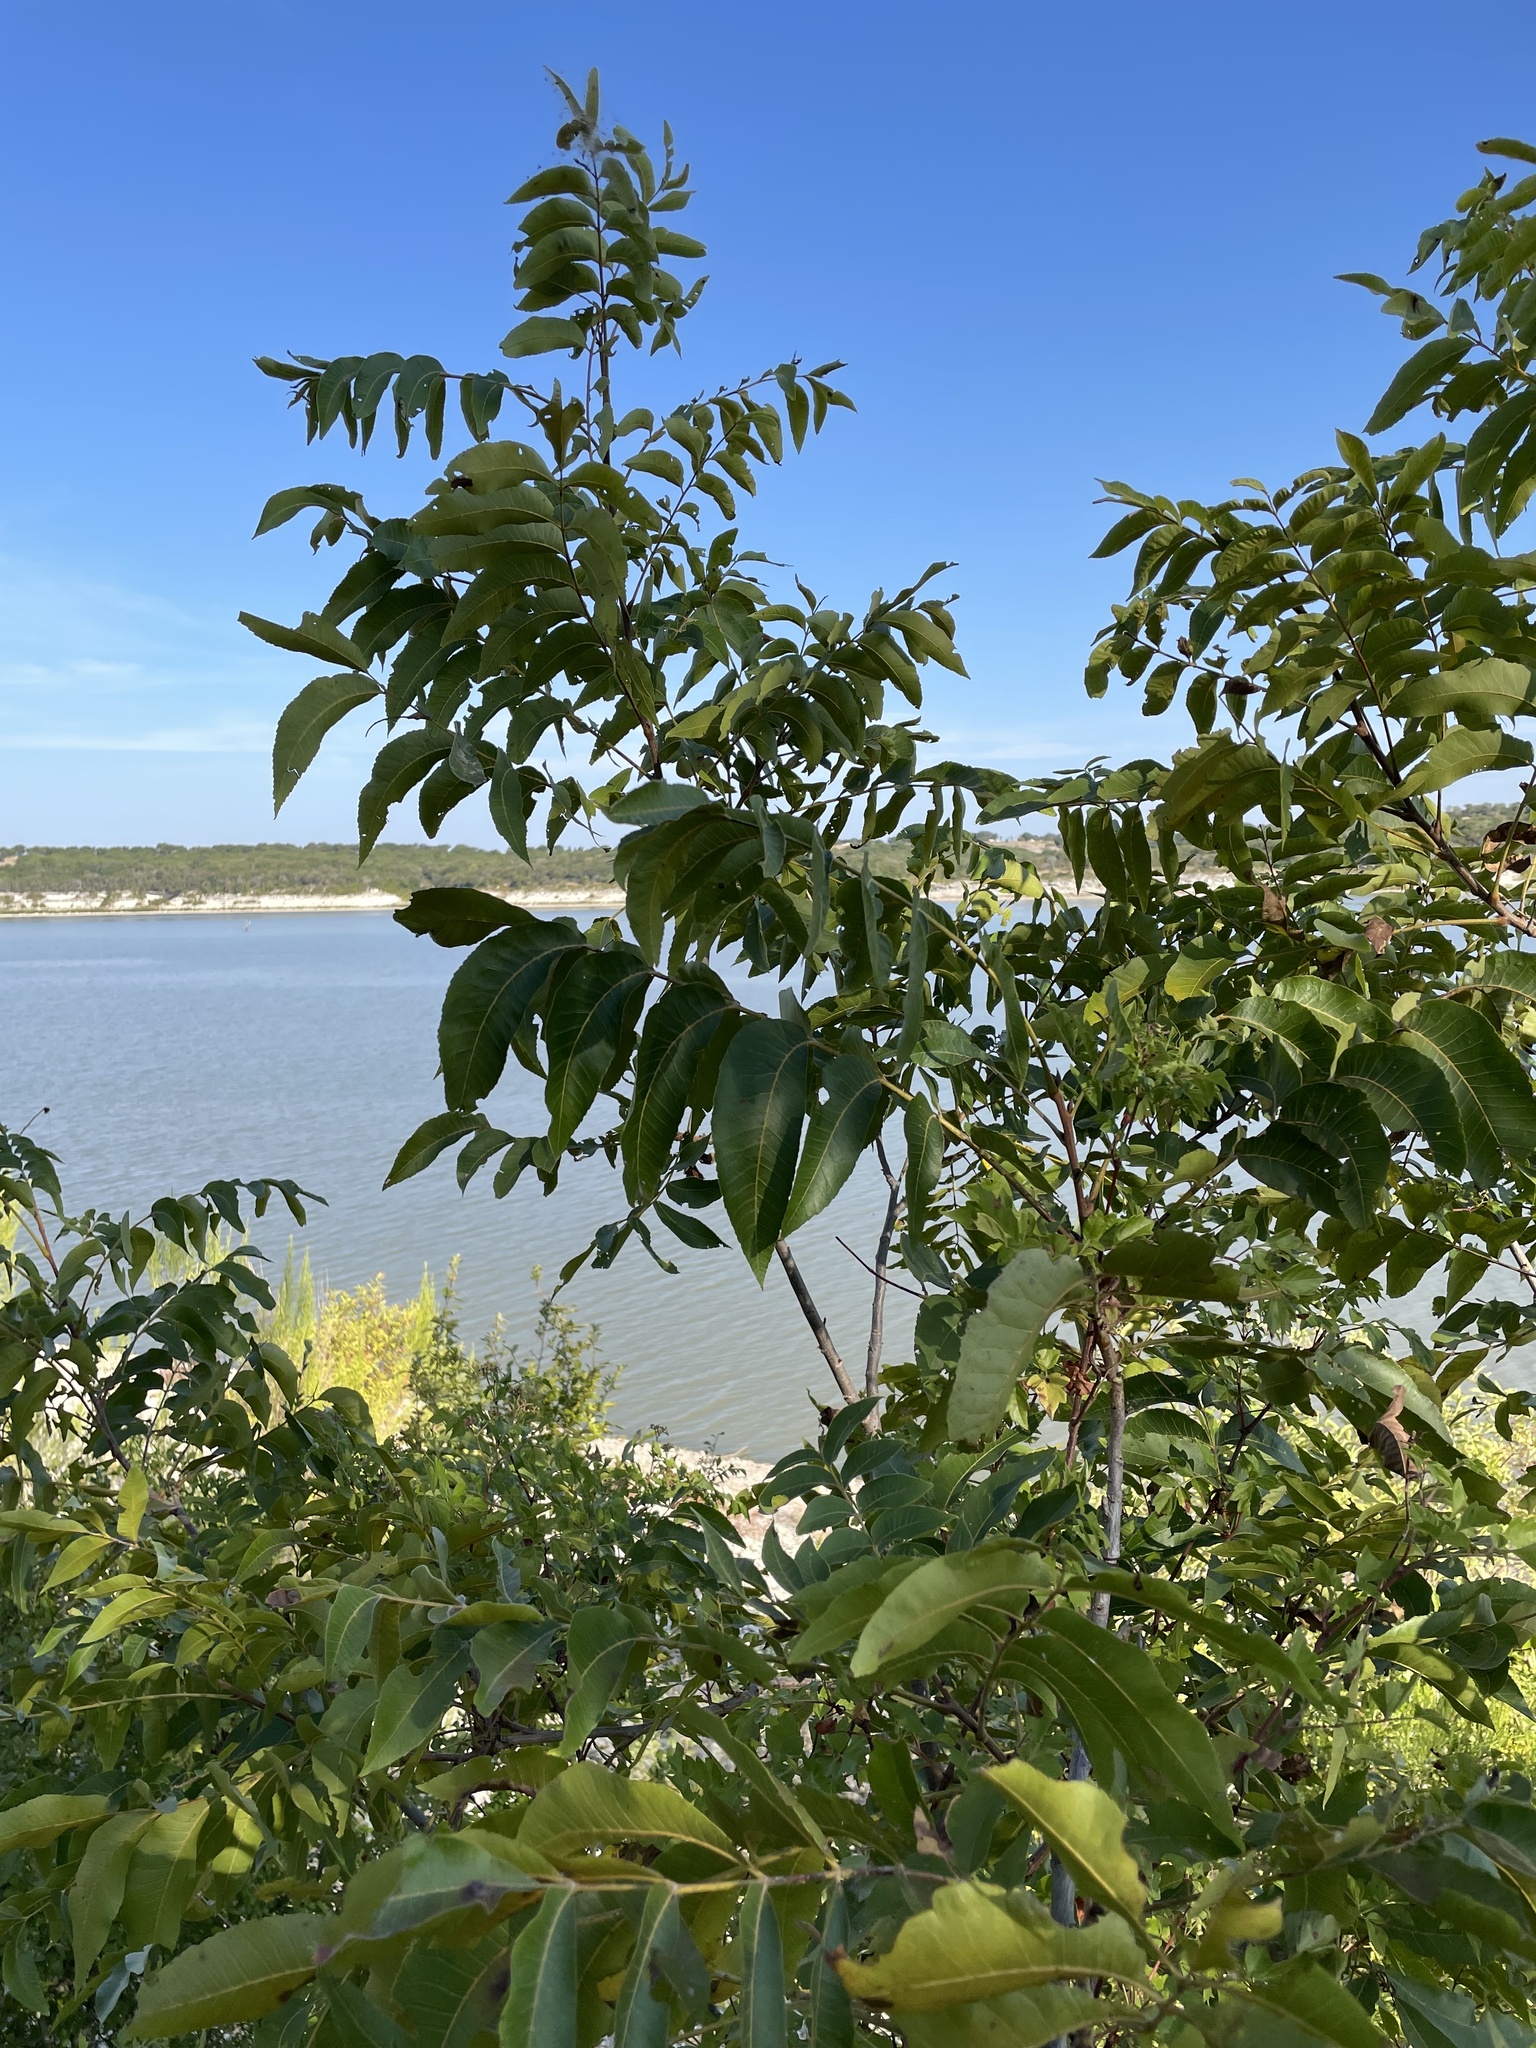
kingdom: Plantae
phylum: Tracheophyta
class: Magnoliopsida
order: Fagales
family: Juglandaceae
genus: Carya
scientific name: Carya illinoinensis
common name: Pecan
